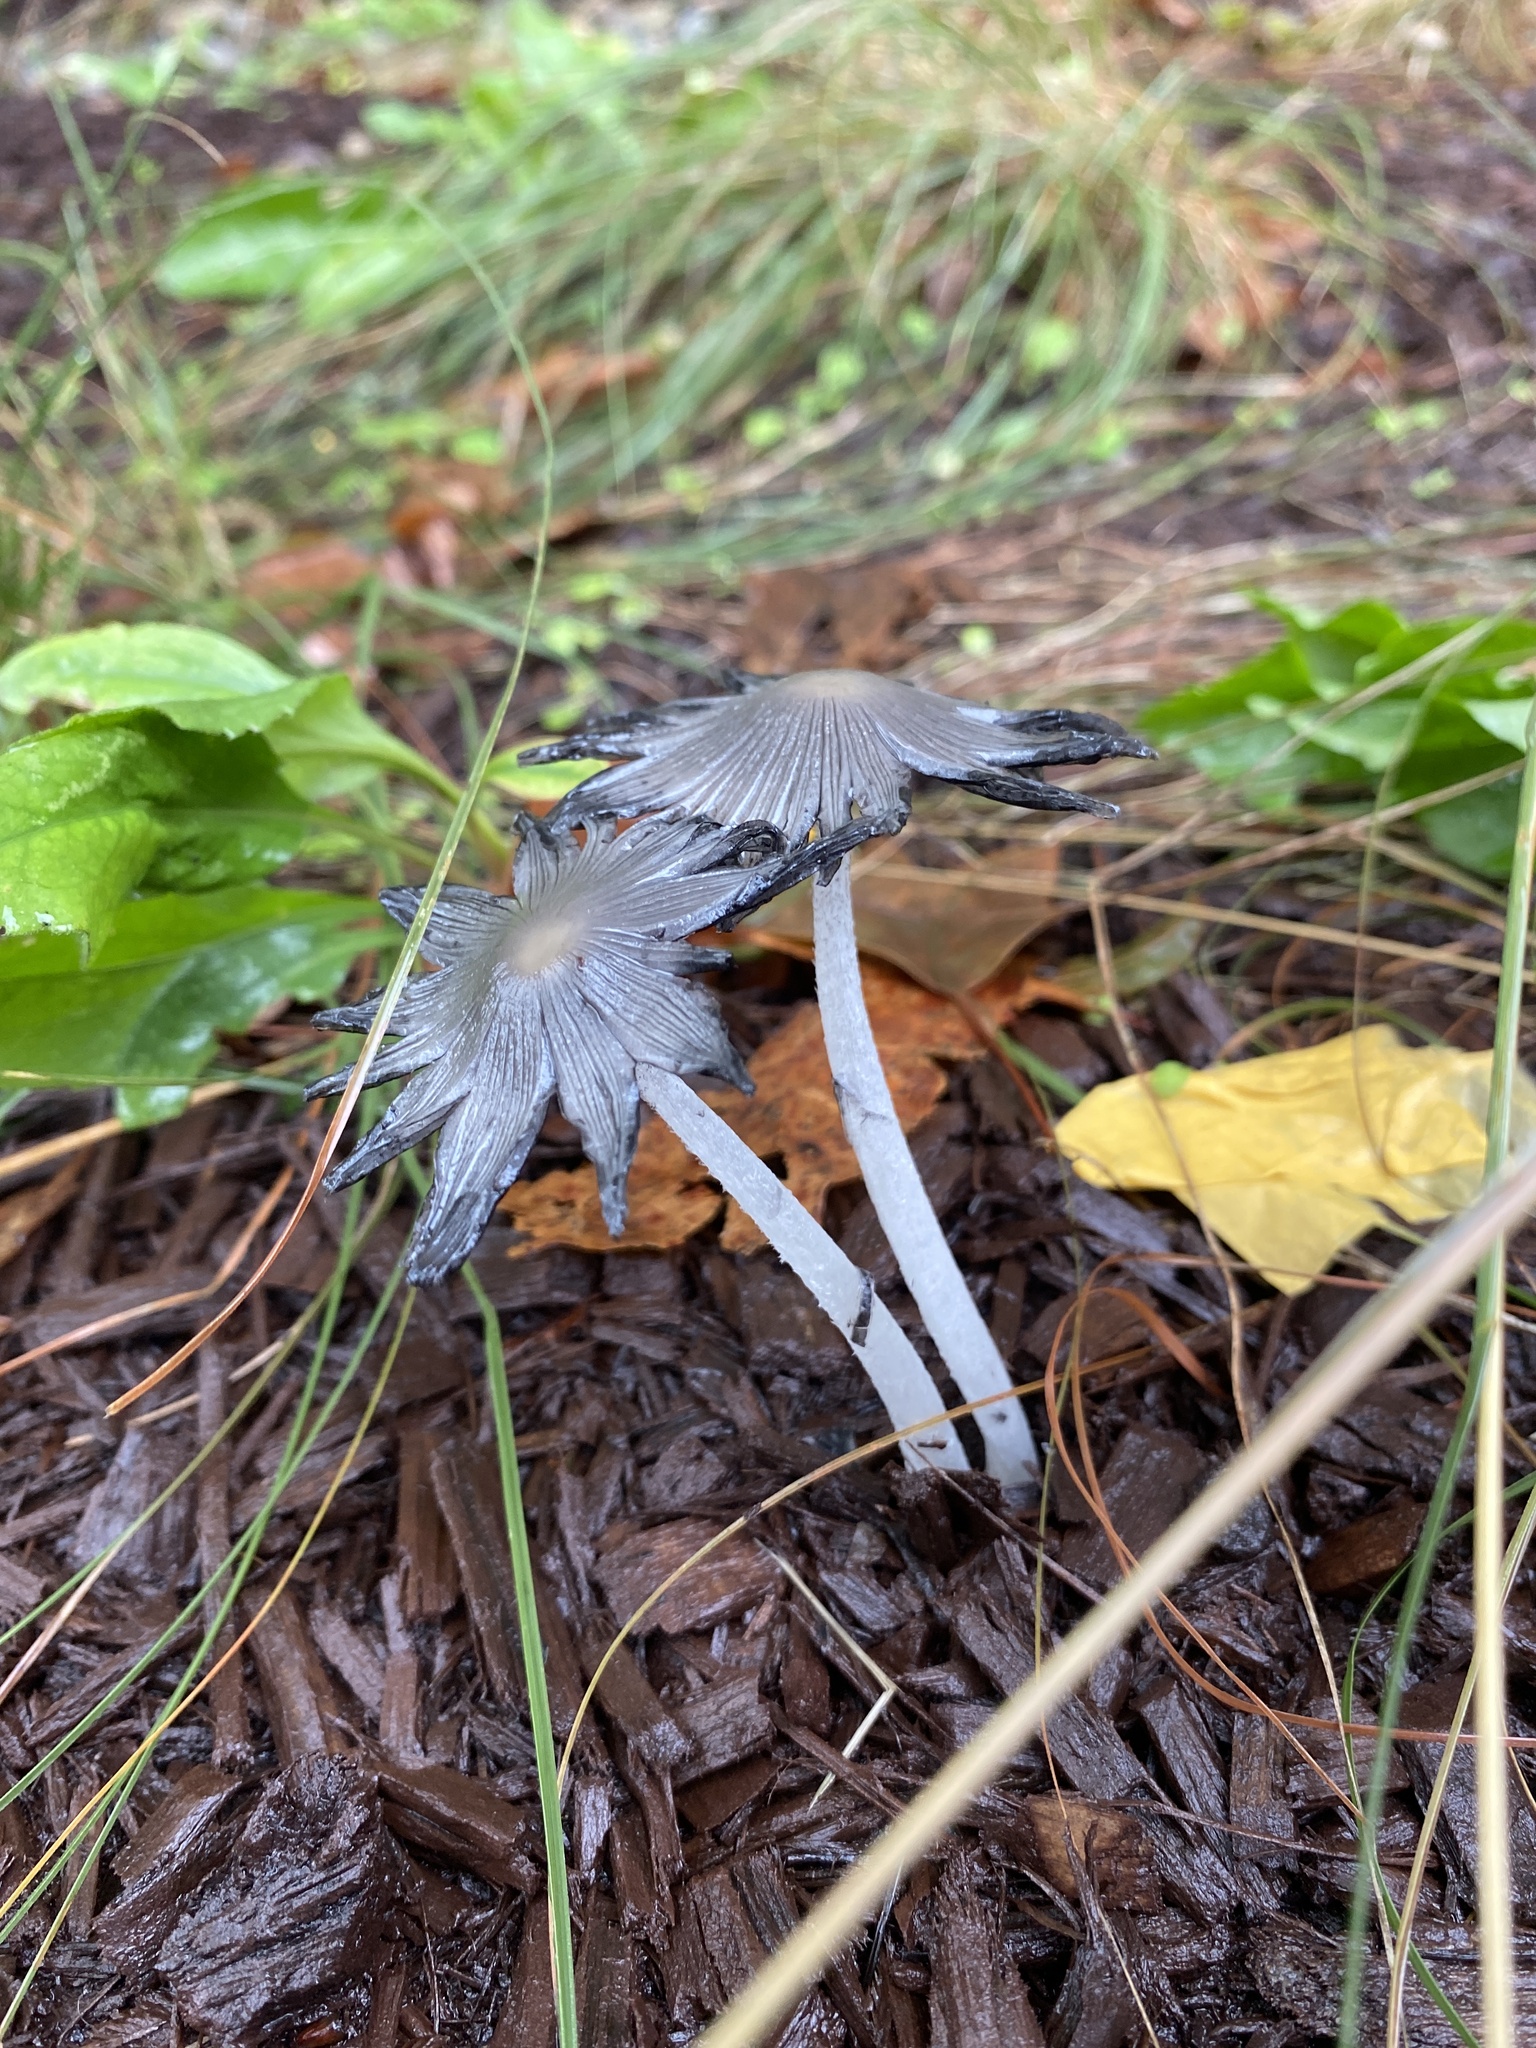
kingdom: Fungi
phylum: Basidiomycota
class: Agaricomycetes
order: Agaricales
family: Psathyrellaceae
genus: Coprinopsis
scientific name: Coprinopsis lagopus
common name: Hare'sfoot inkcap
